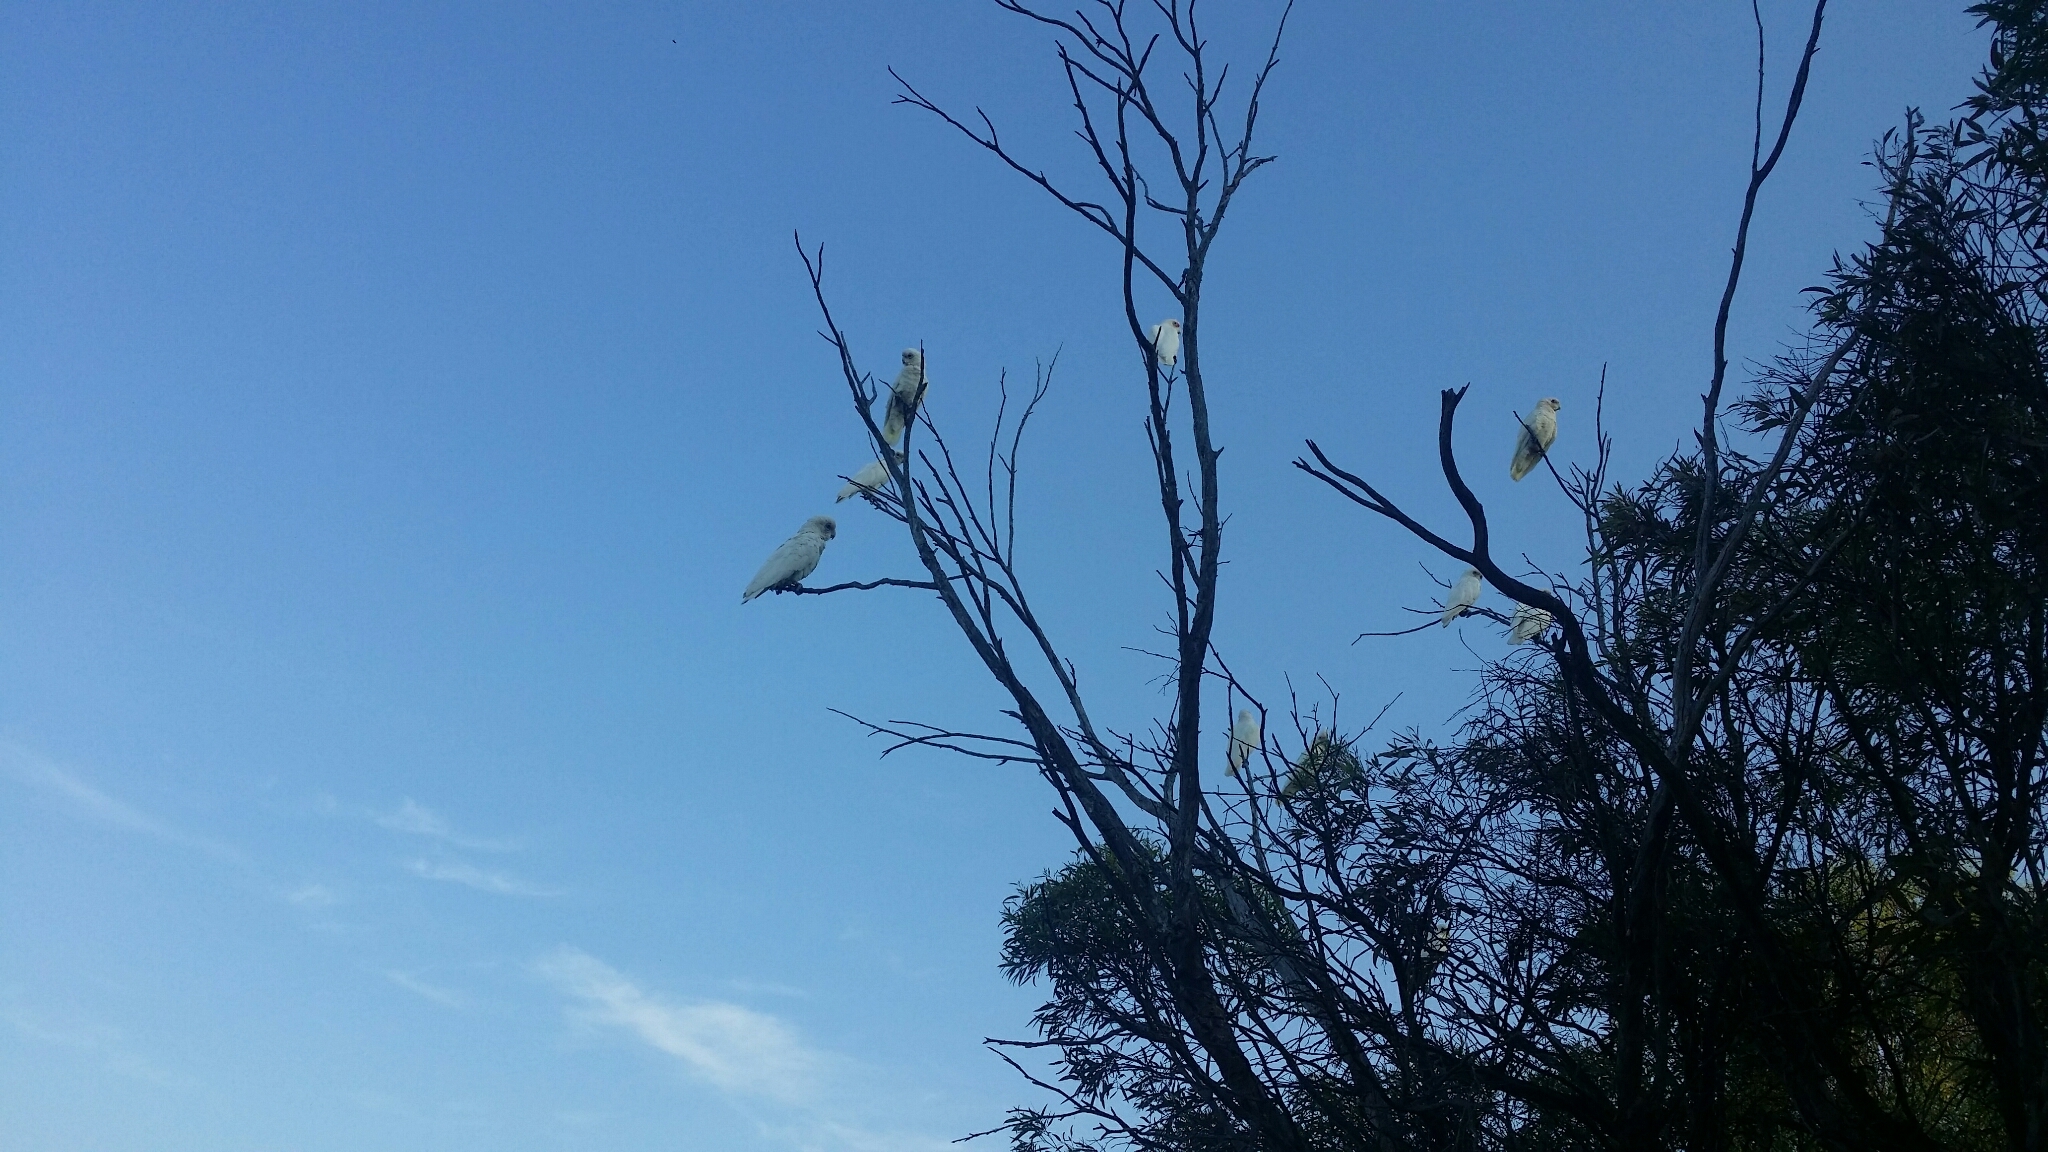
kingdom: Animalia
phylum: Chordata
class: Aves
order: Psittaciformes
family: Psittacidae
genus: Cacatua
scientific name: Cacatua sanguinea
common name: Little corella
